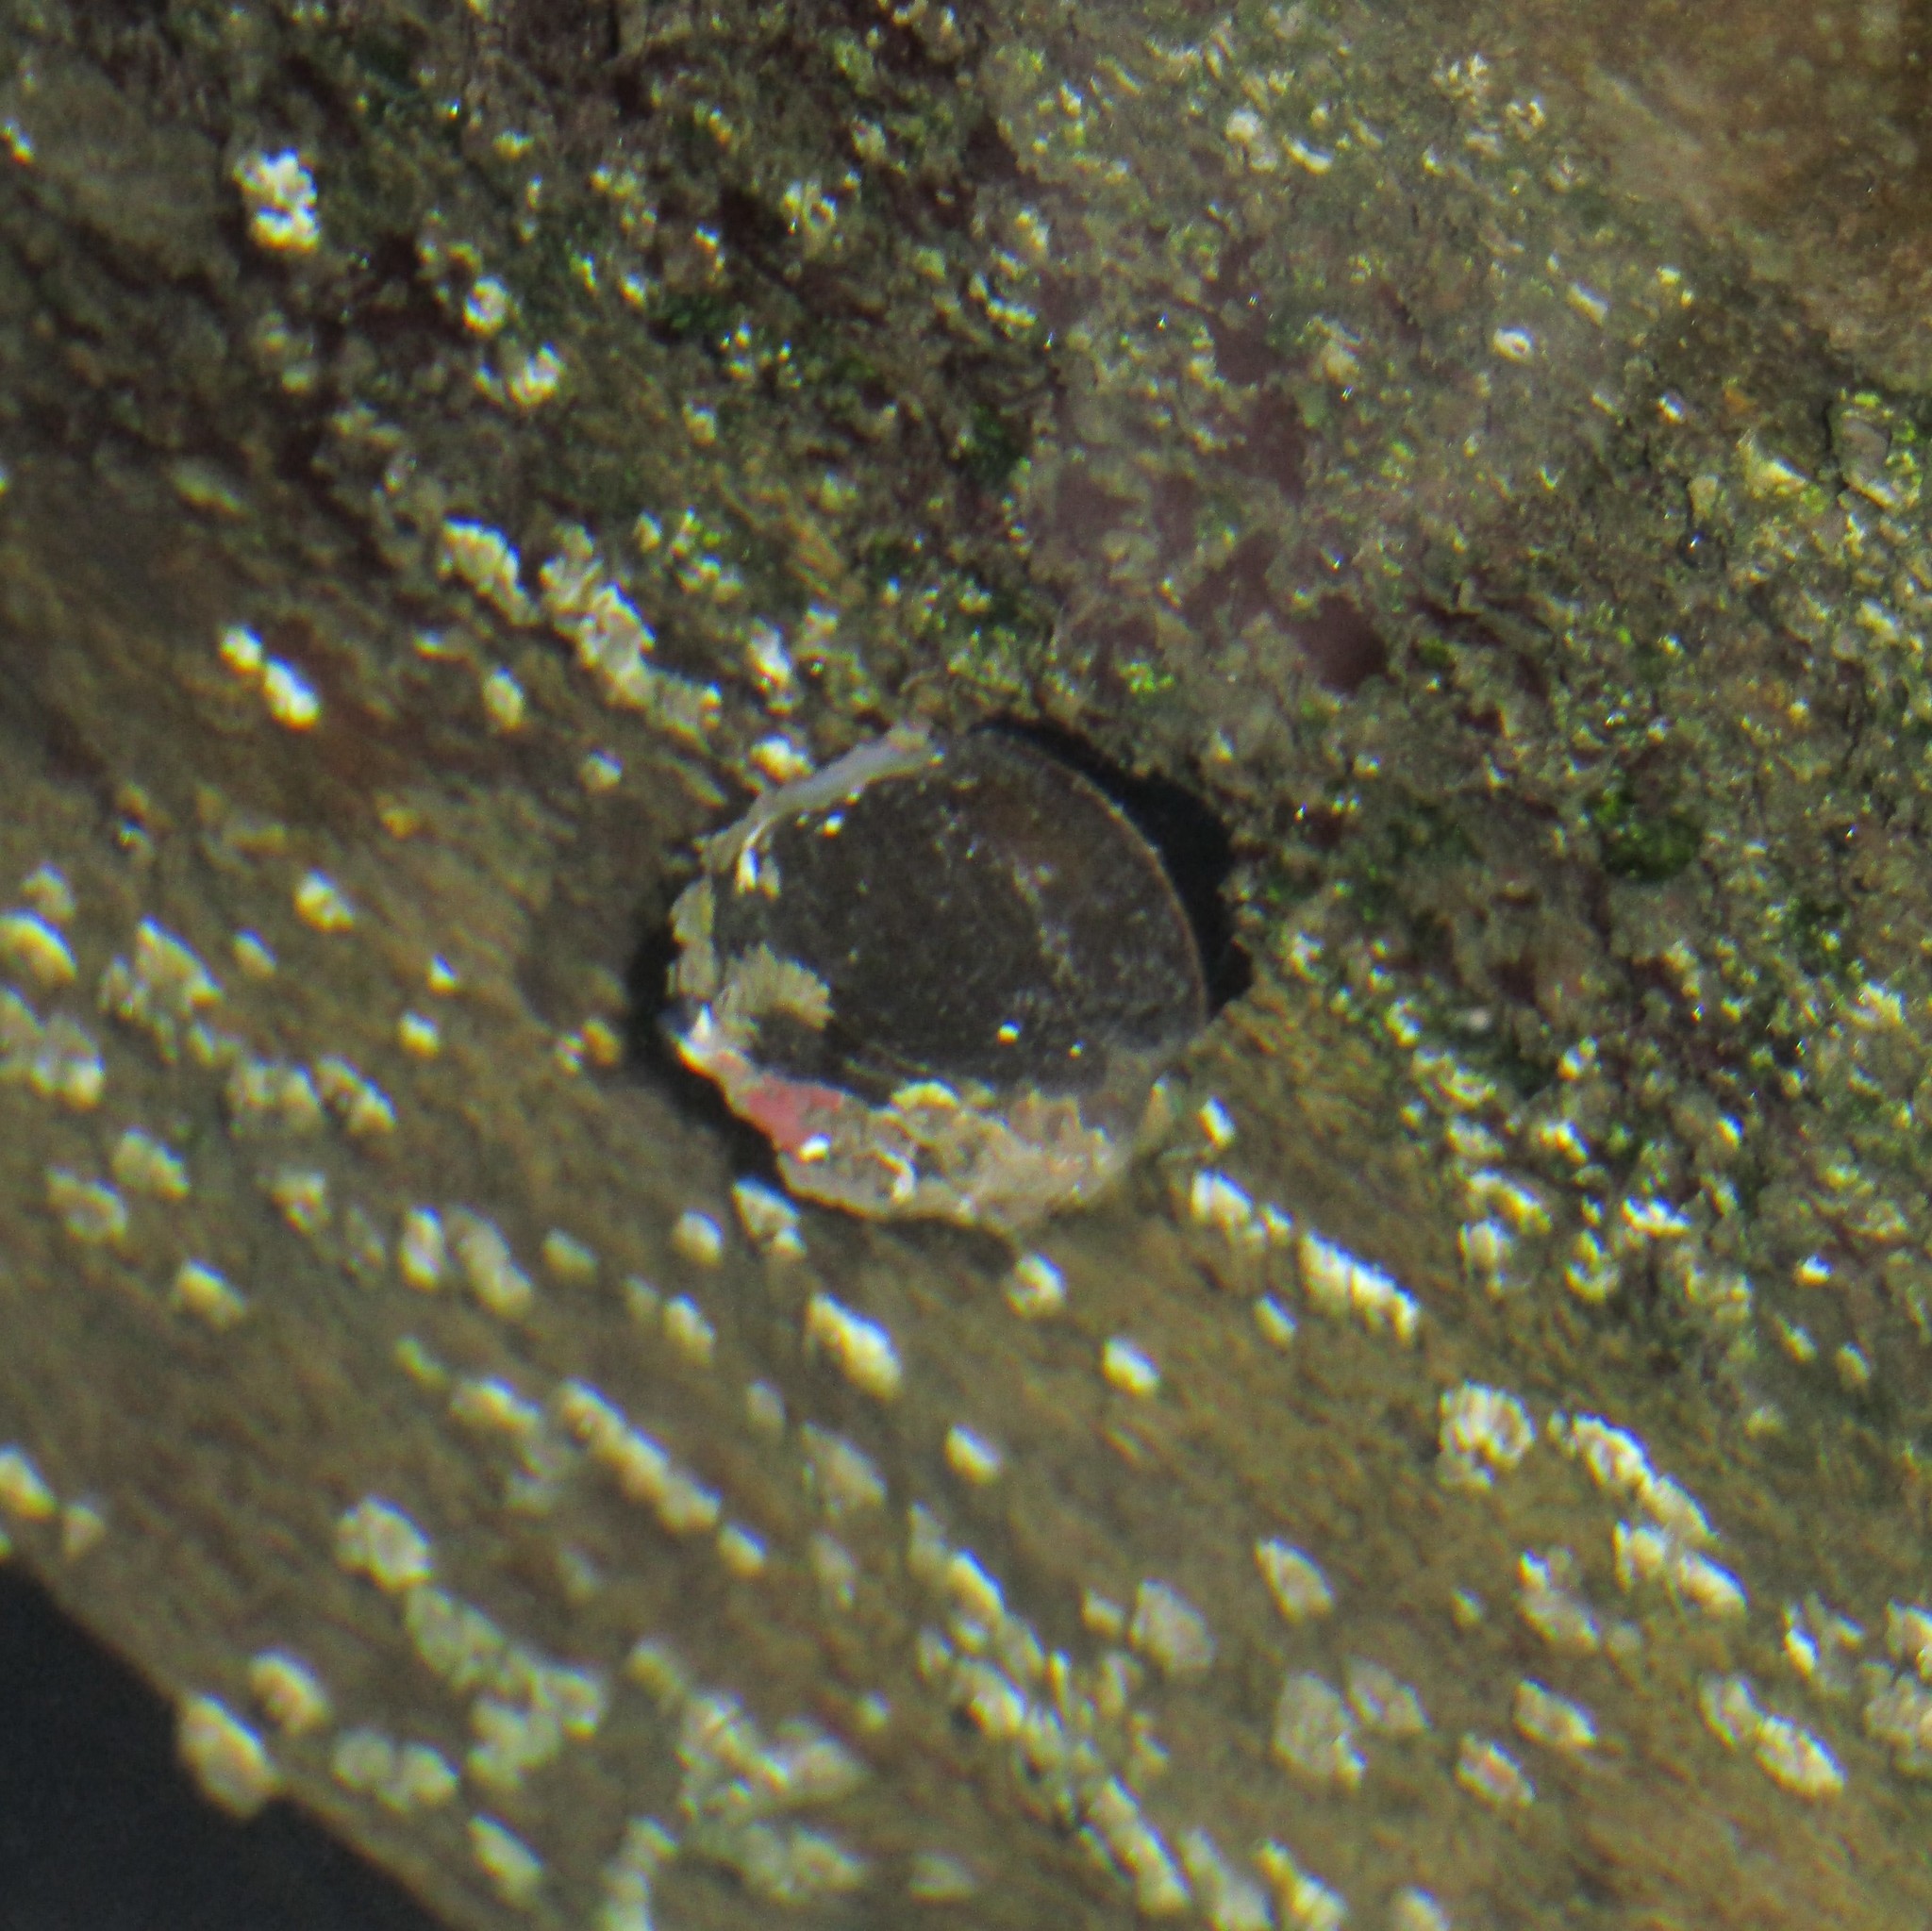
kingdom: Animalia
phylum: Mollusca
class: Gastropoda
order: Trochida
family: Turbinidae
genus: Lunella
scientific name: Lunella smaragda
